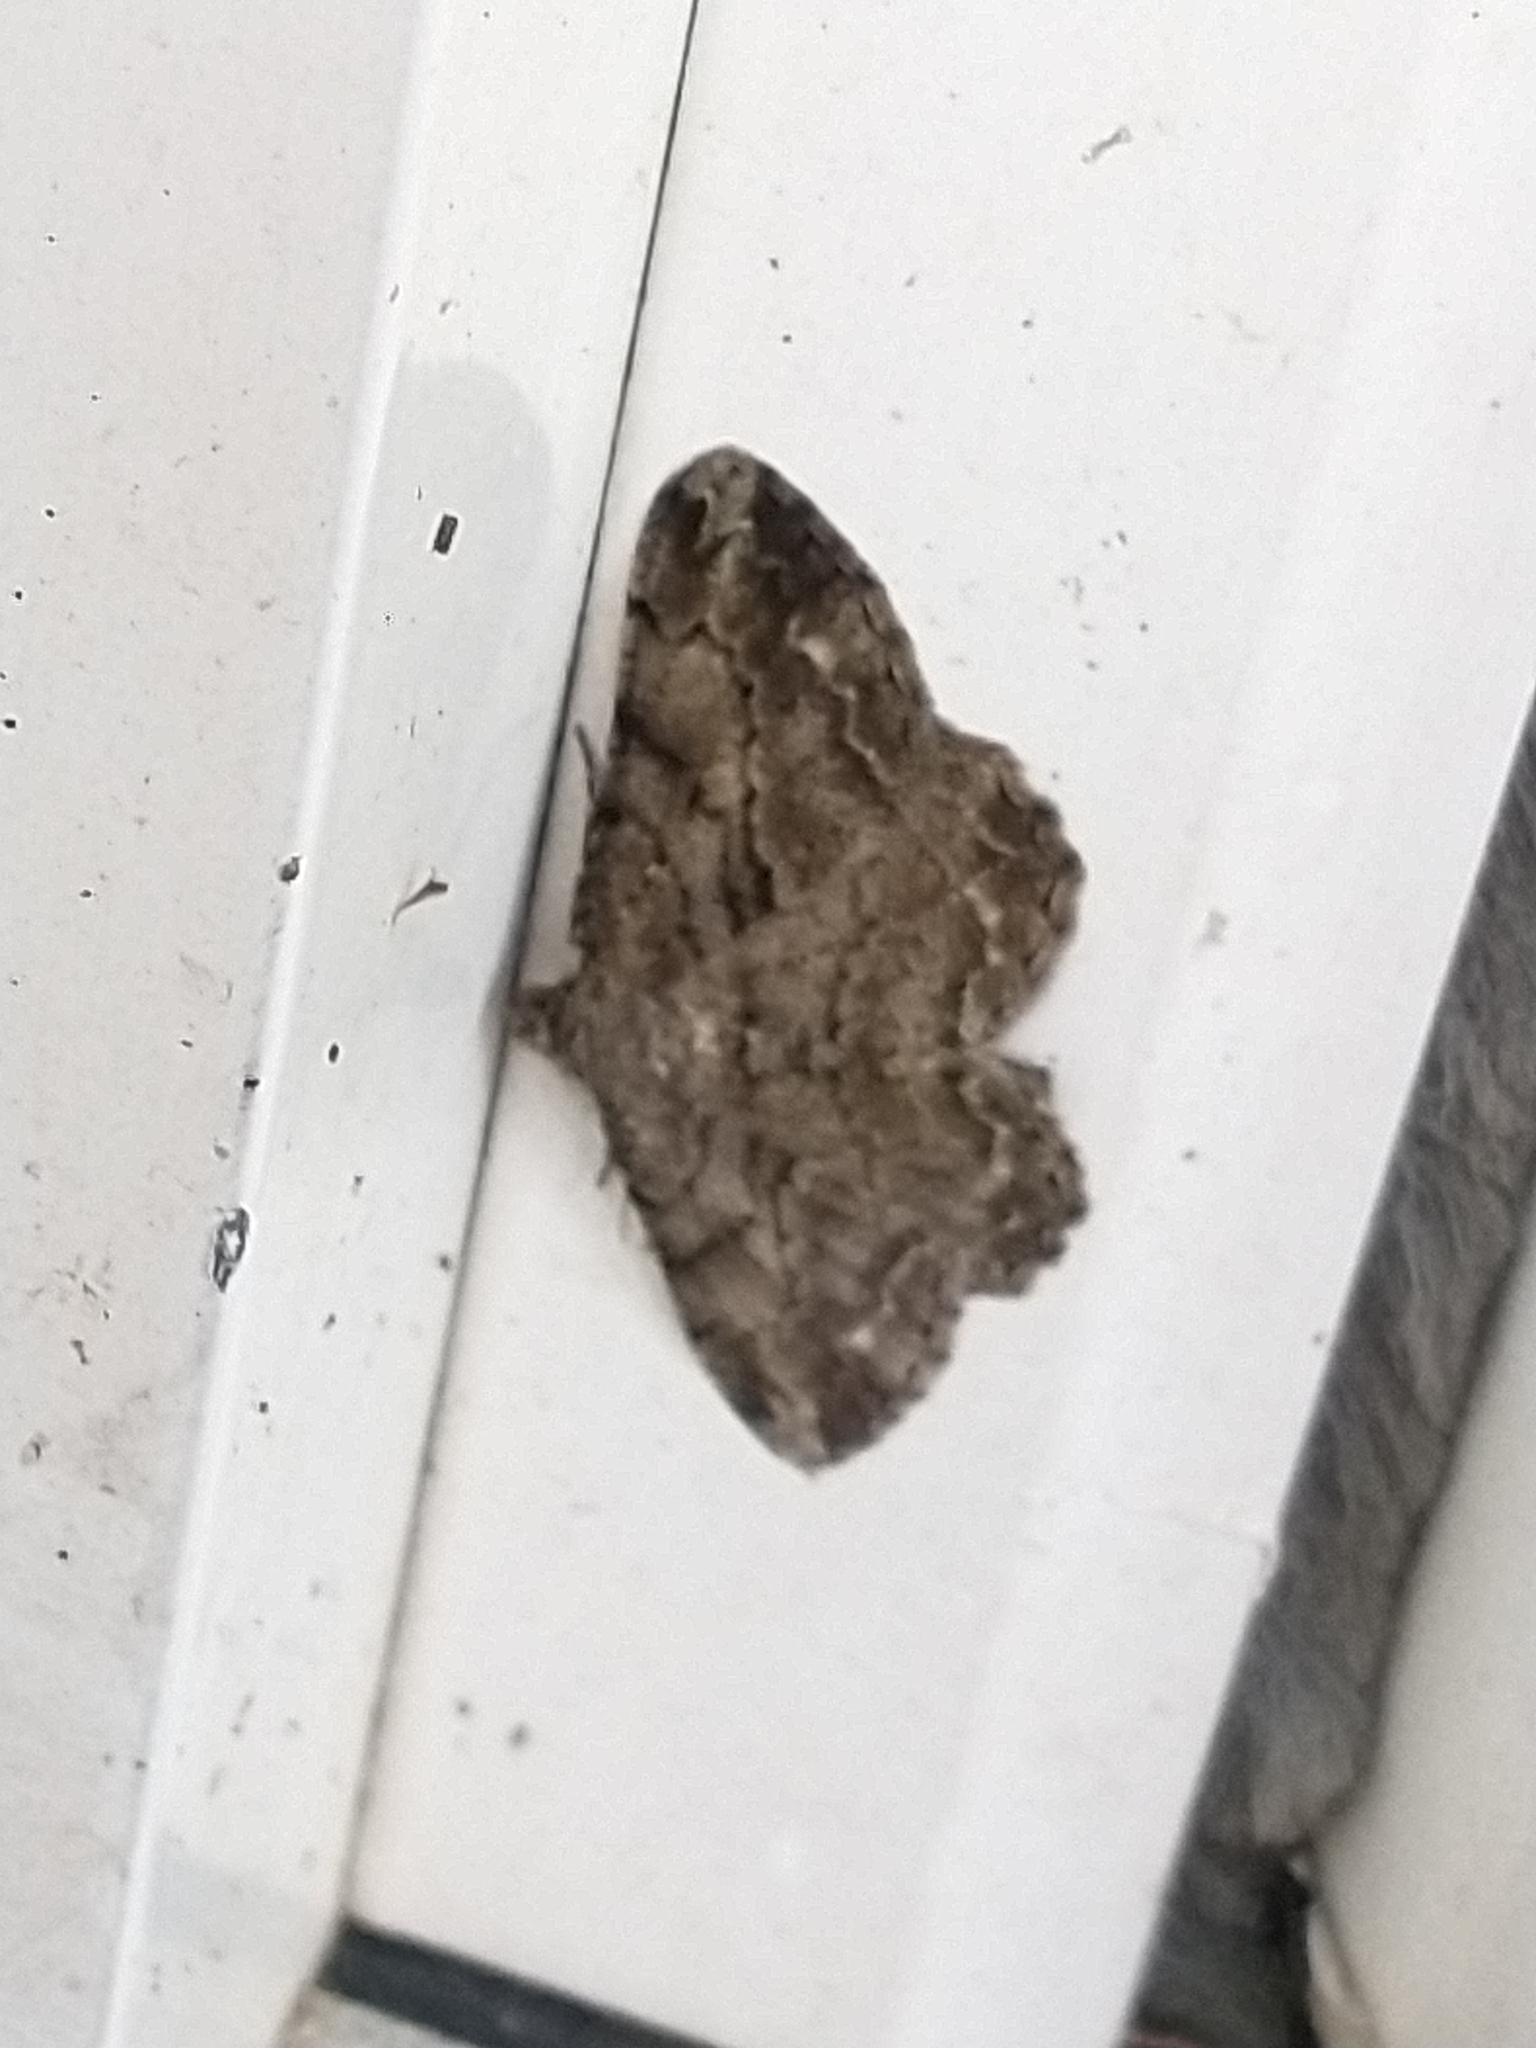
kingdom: Animalia
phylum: Arthropoda
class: Insecta
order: Lepidoptera
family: Geometridae
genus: Peribatodes
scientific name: Peribatodes rhomboidaria
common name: Willow beauty
